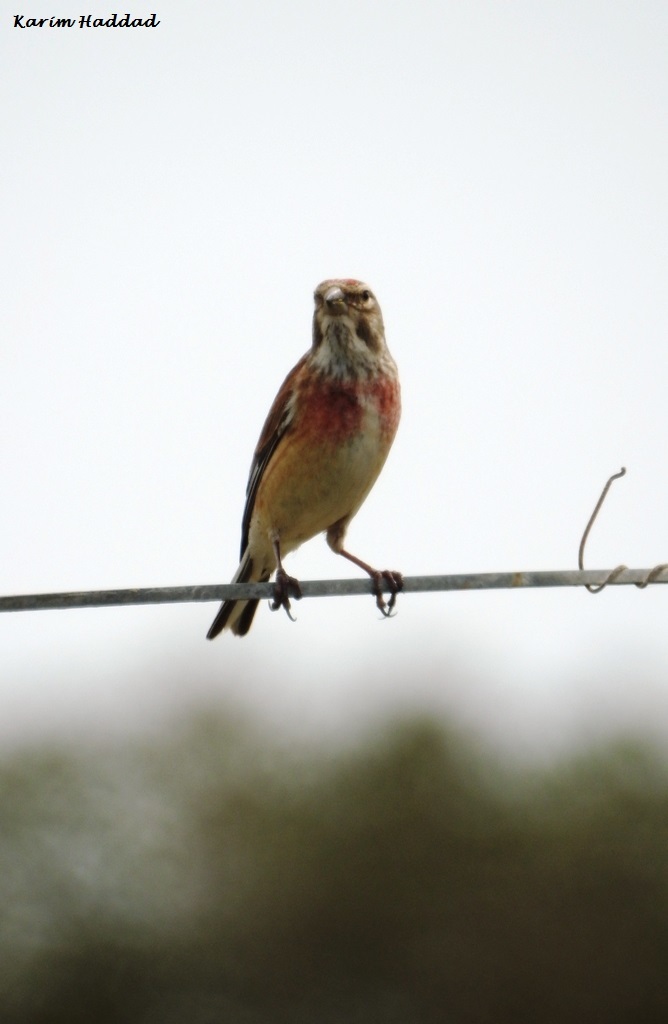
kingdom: Animalia
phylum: Chordata
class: Aves
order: Passeriformes
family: Fringillidae
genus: Linaria
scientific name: Linaria cannabina
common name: Common linnet
